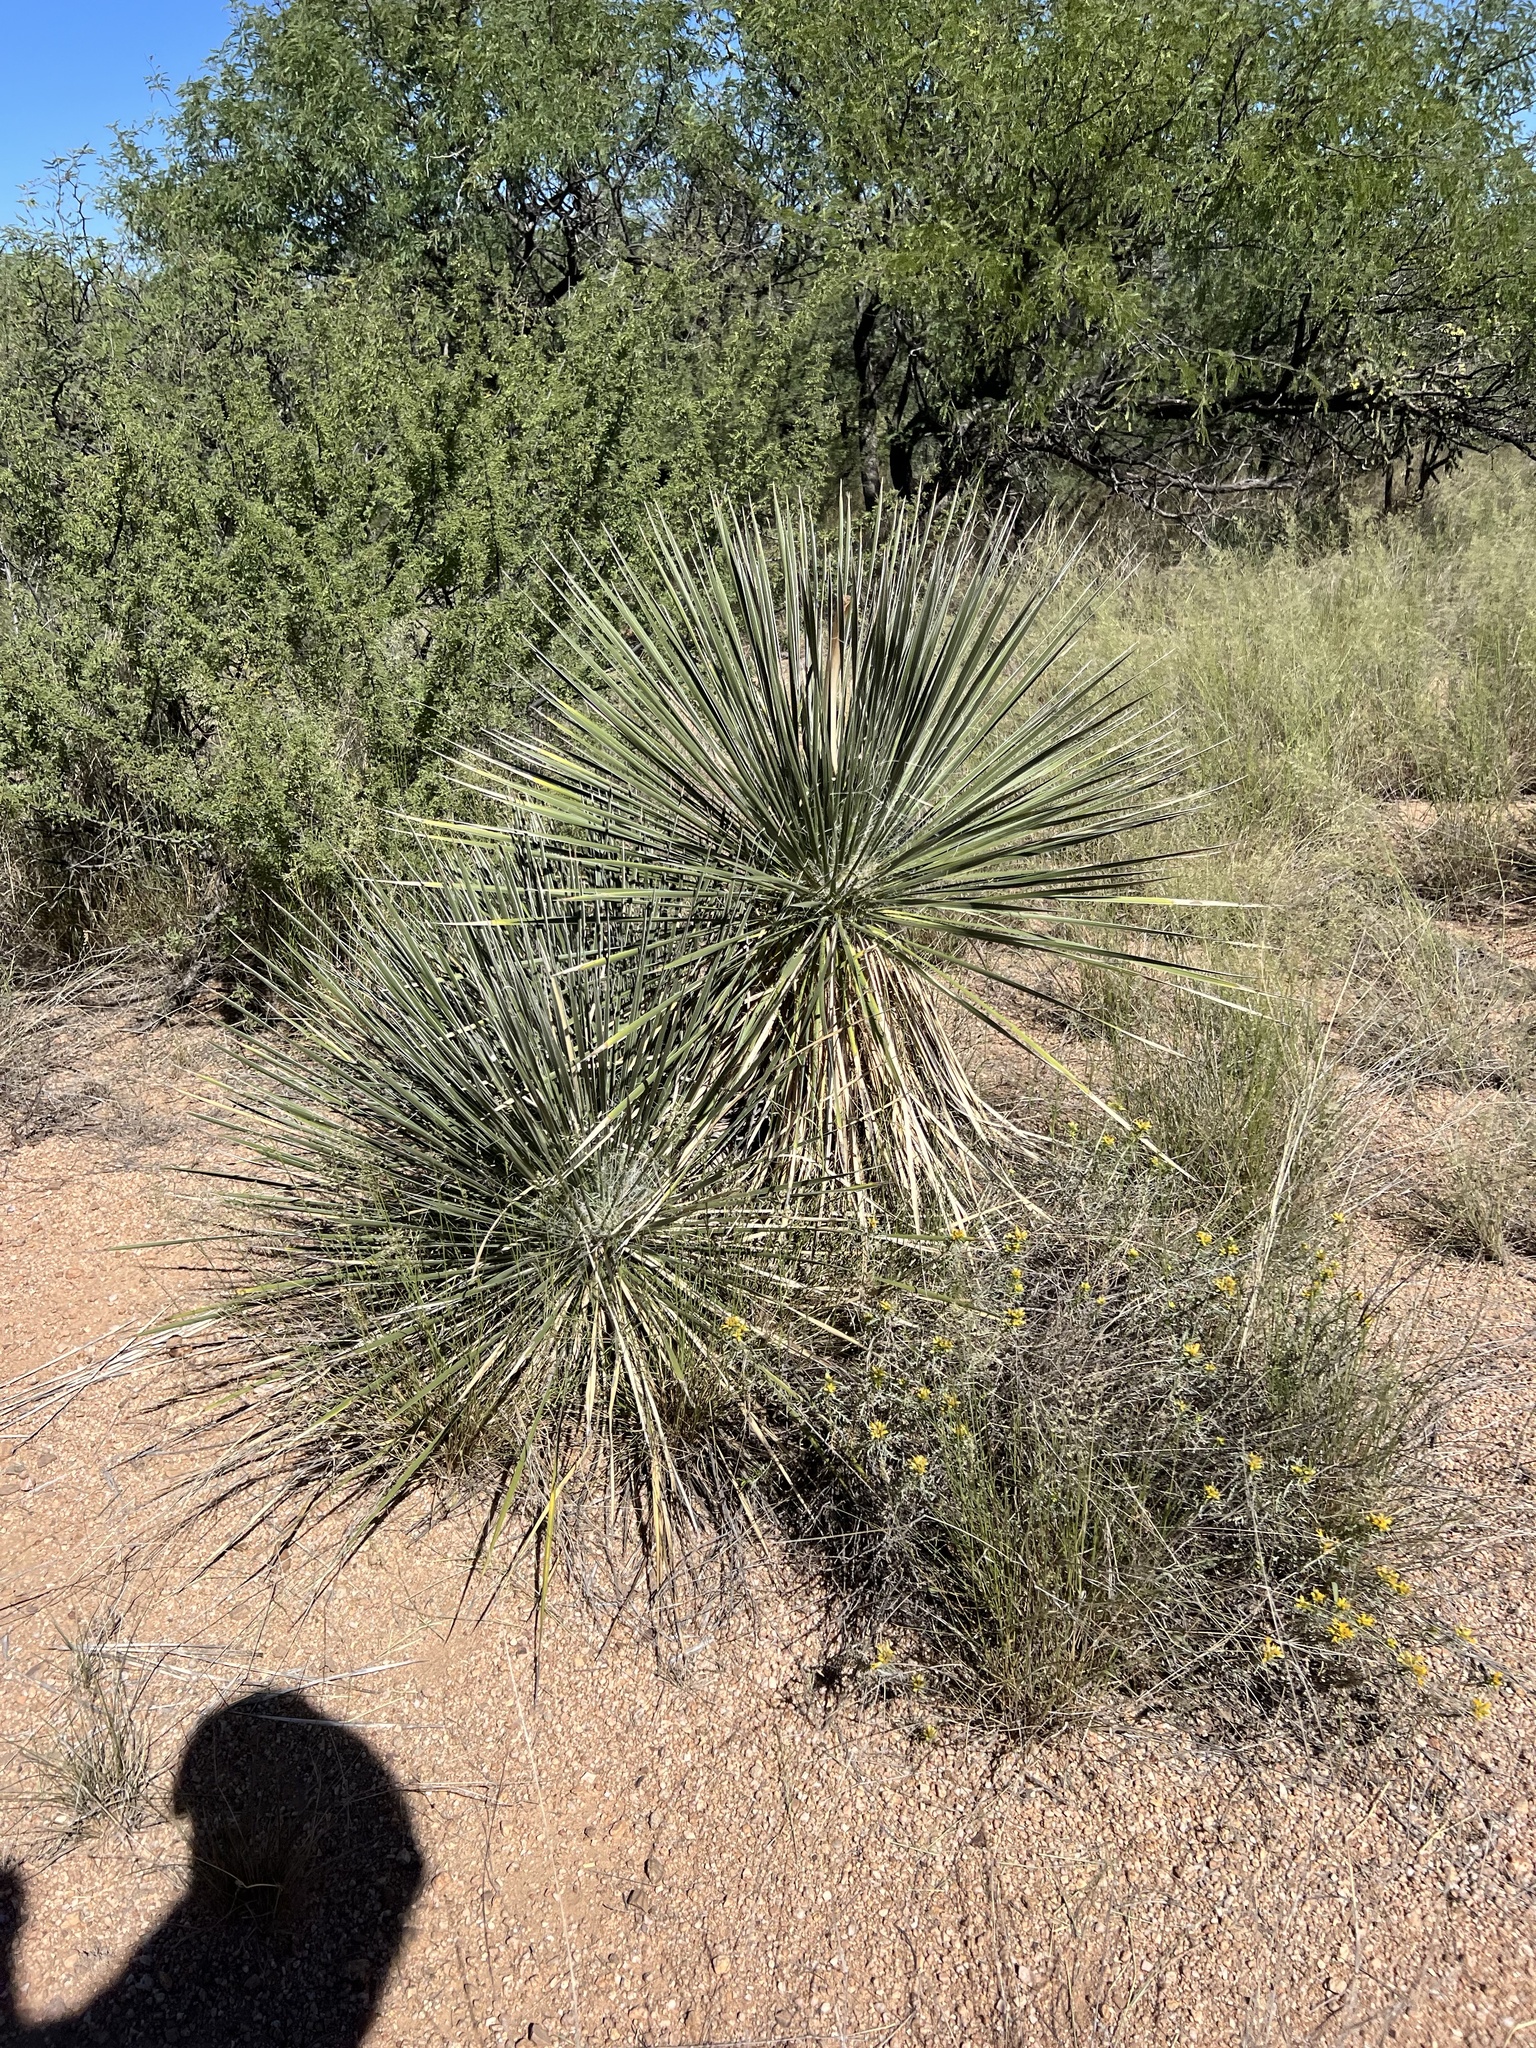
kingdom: Plantae
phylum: Tracheophyta
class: Liliopsida
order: Asparagales
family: Asparagaceae
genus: Yucca
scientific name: Yucca elata
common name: Palmella
